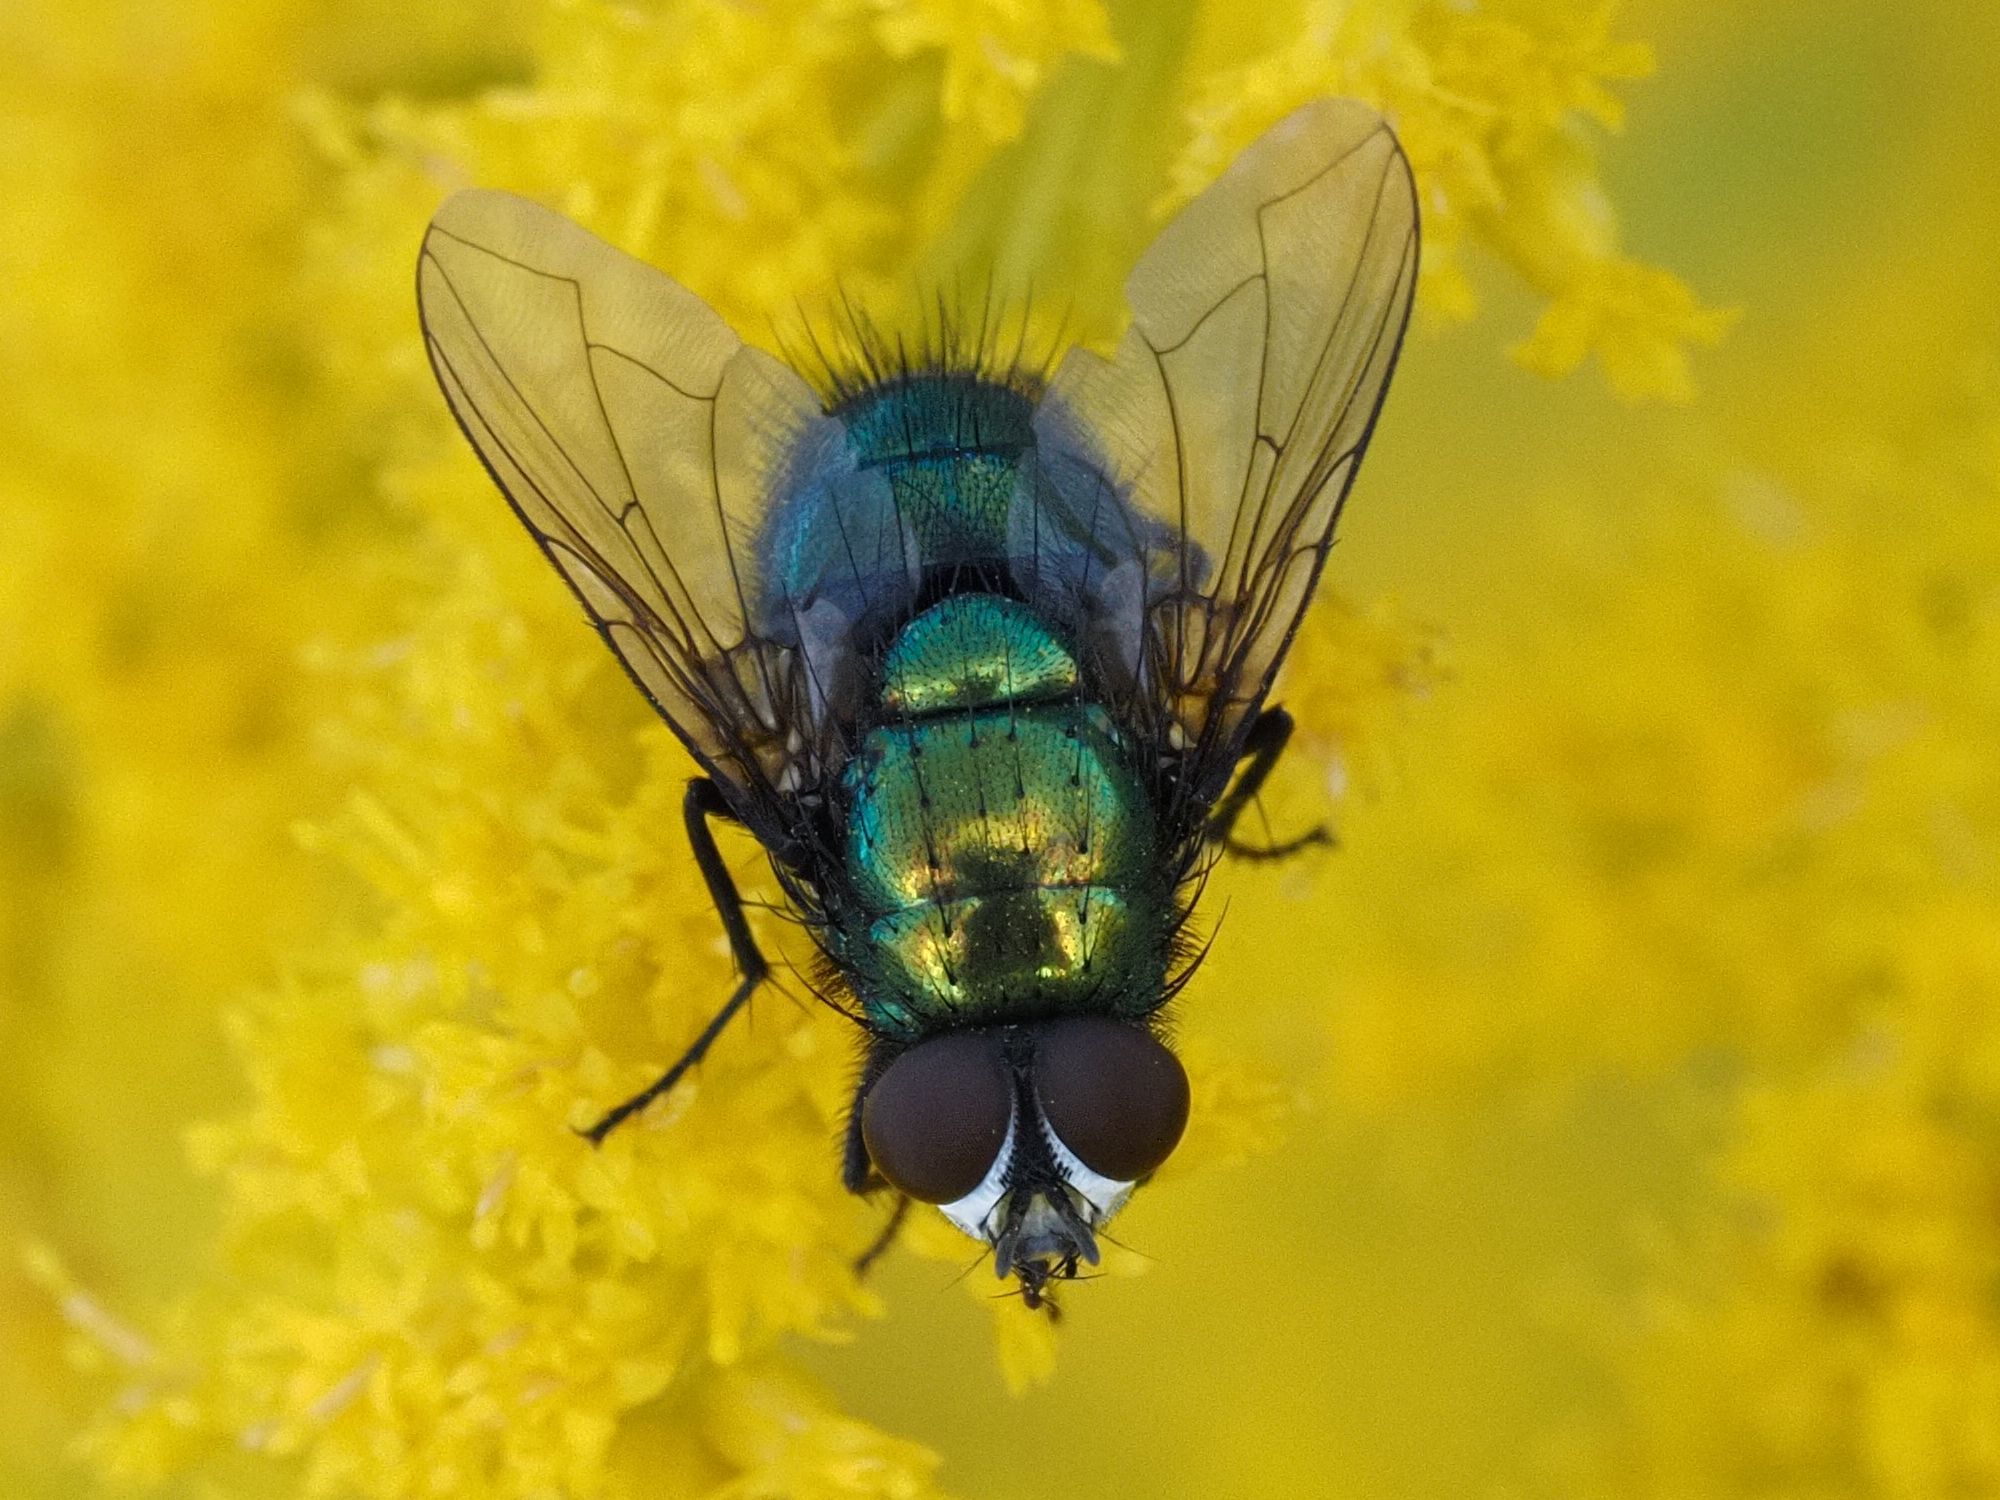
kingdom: Animalia
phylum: Arthropoda
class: Insecta
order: Diptera
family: Calliphoridae
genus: Lucilia
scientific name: Lucilia silvarum
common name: Marsh greenbottle
